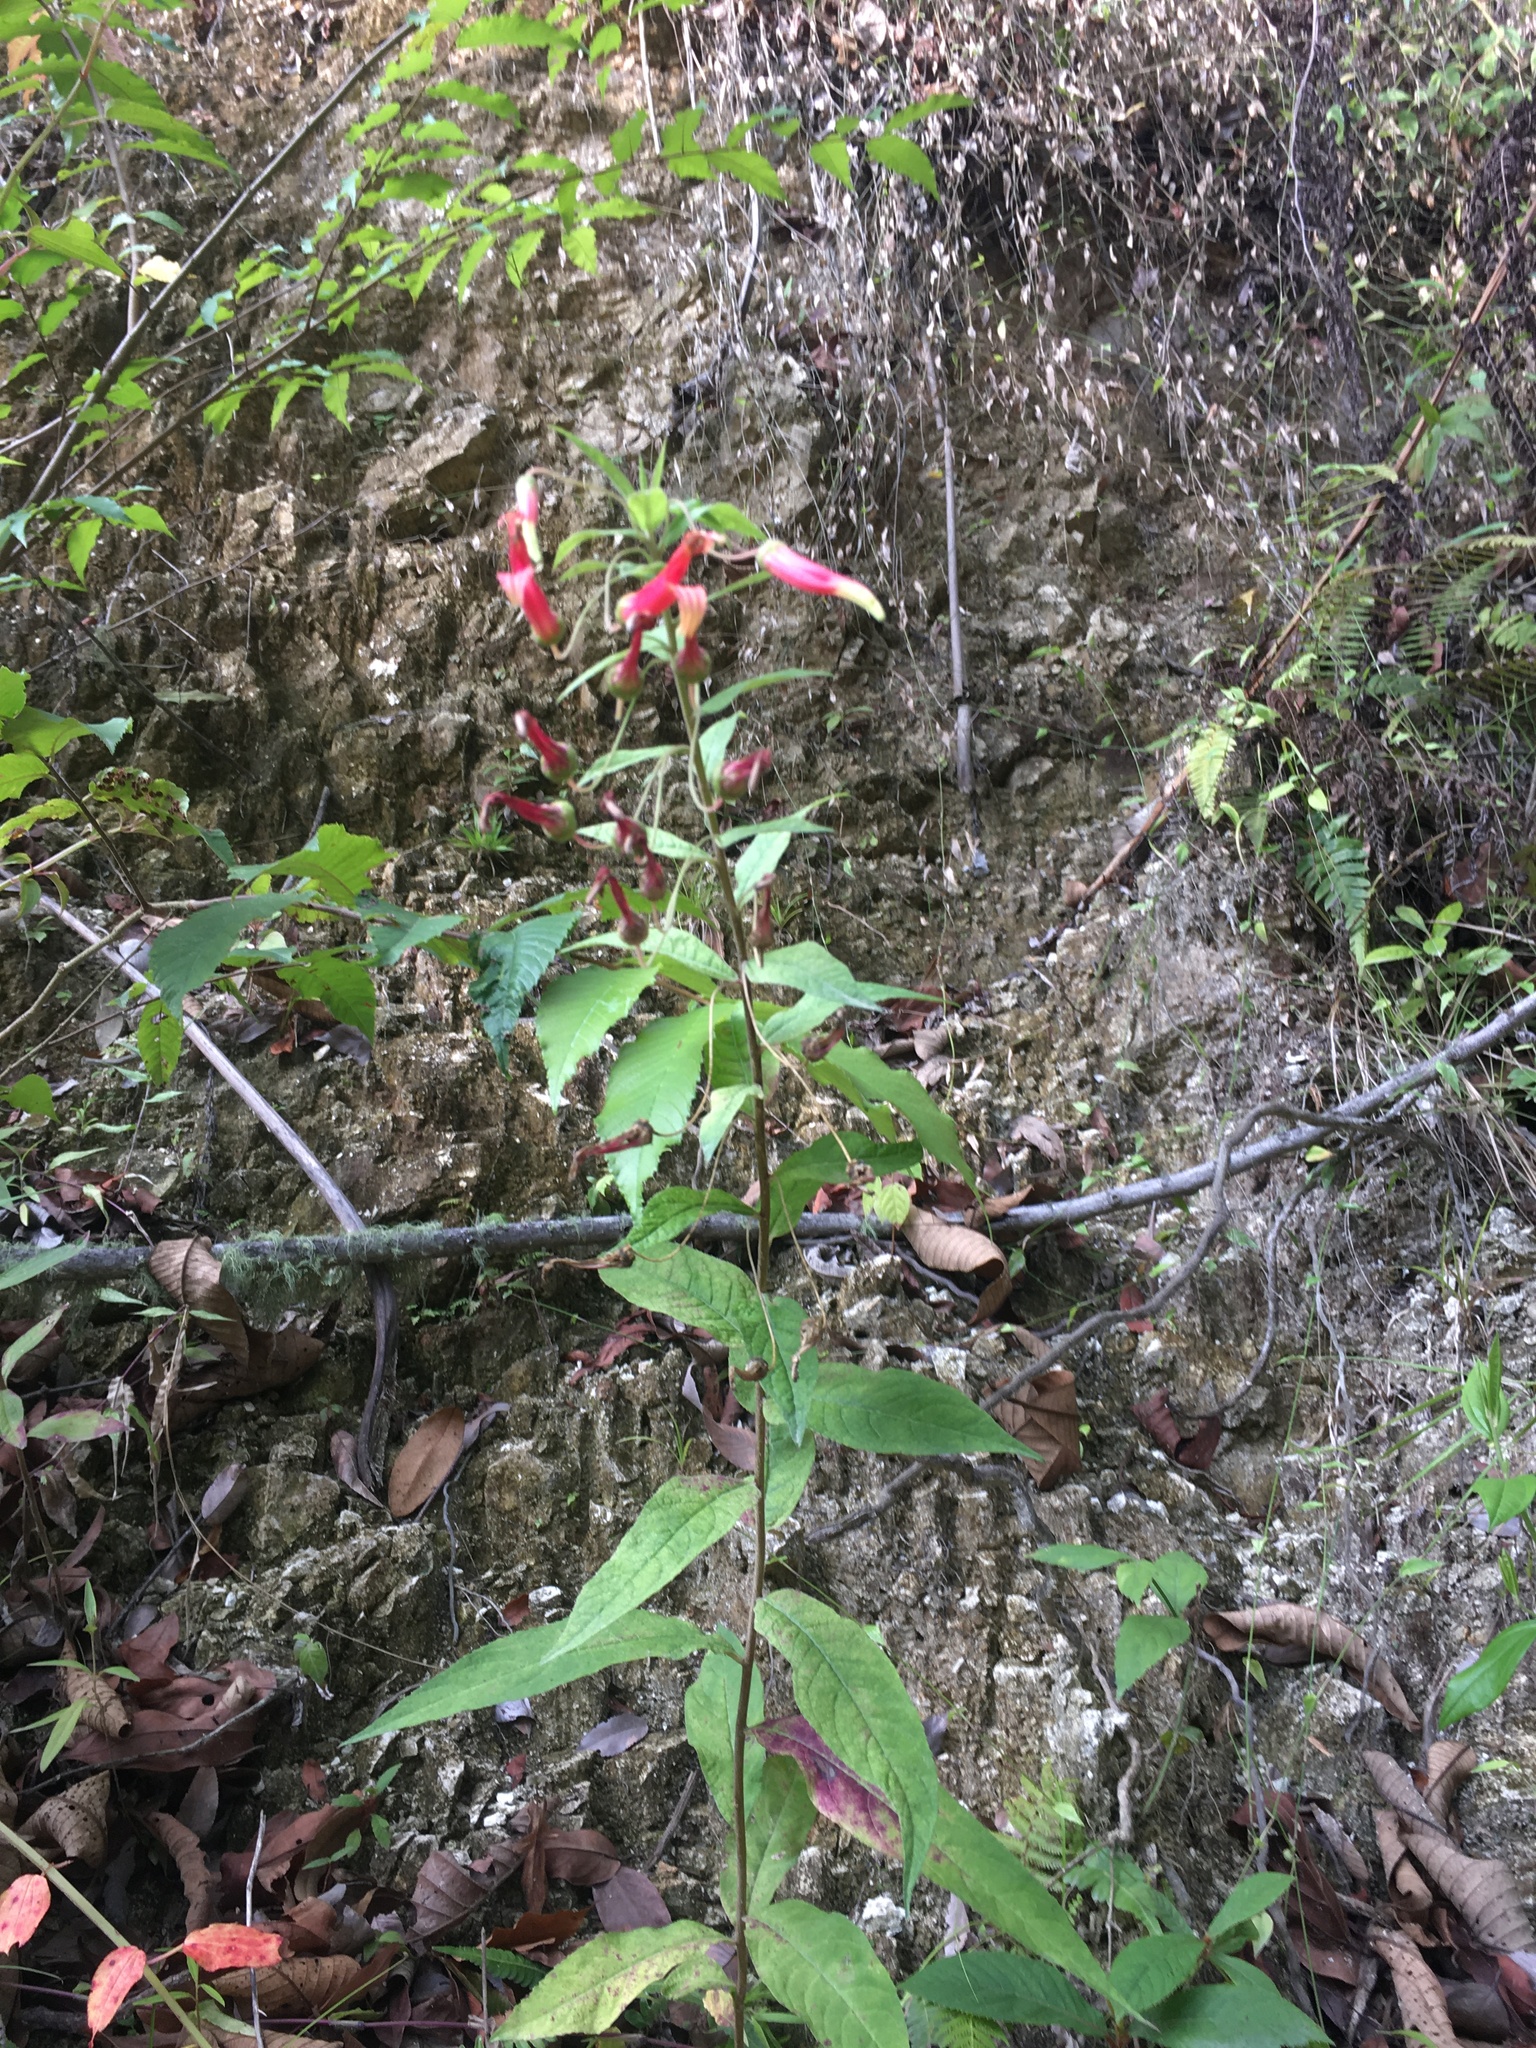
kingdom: Plantae
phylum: Tracheophyta
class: Magnoliopsida
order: Asterales
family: Campanulaceae
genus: Lobelia
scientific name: Lobelia laxiflora
